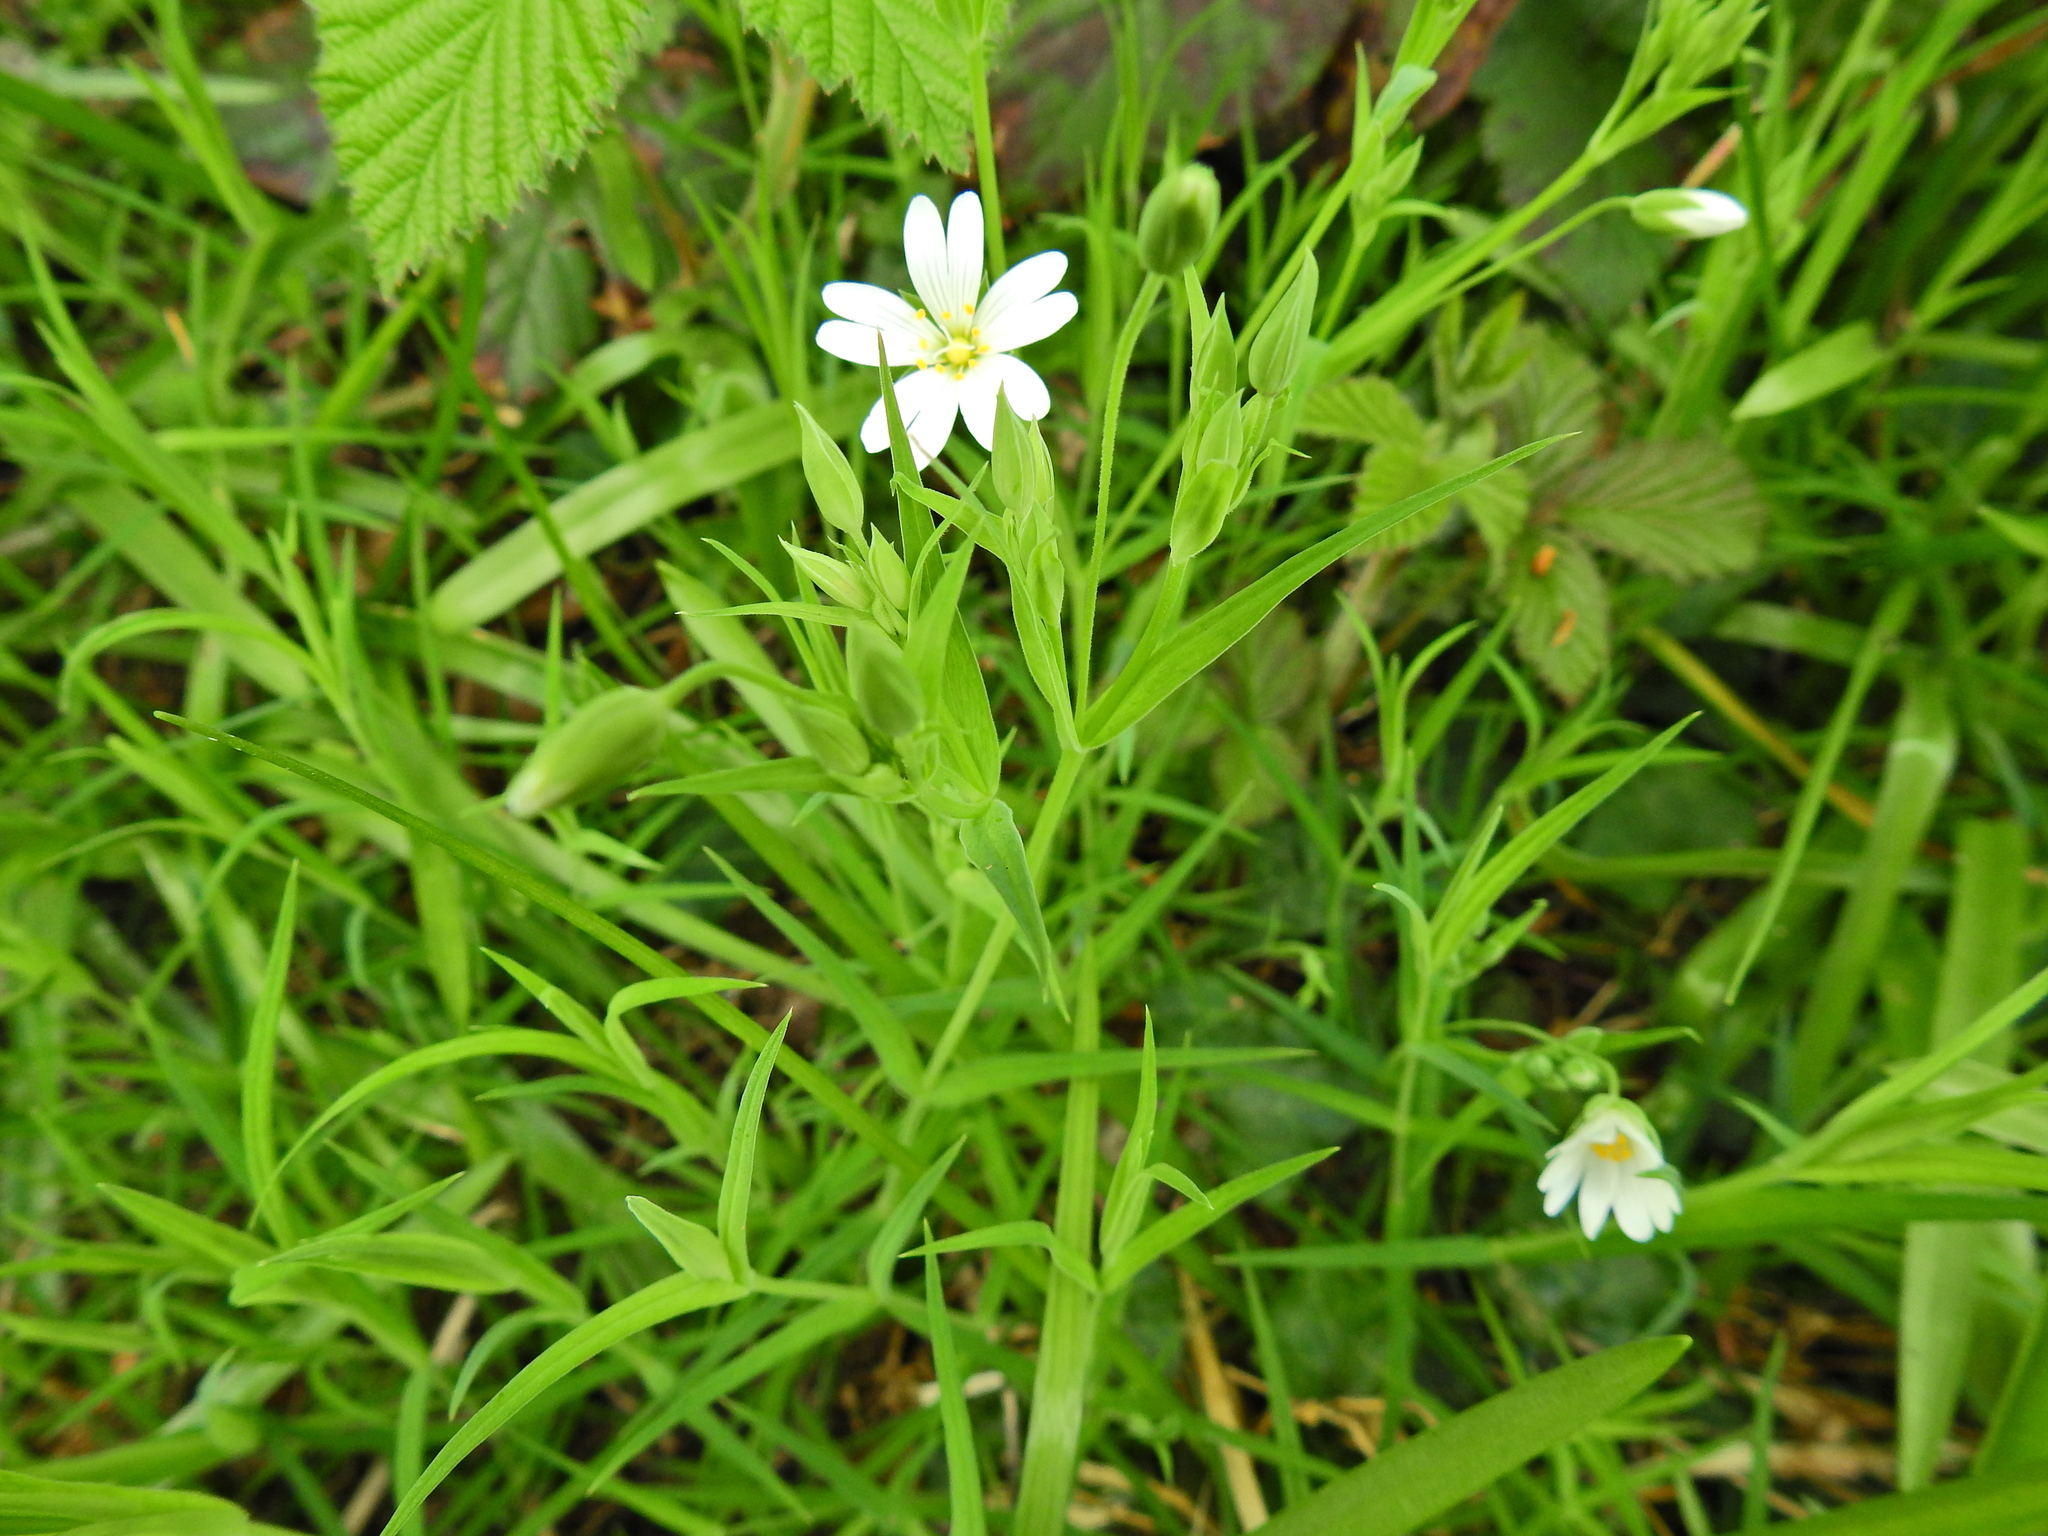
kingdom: Plantae
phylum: Tracheophyta
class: Magnoliopsida
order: Caryophyllales
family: Caryophyllaceae
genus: Rabelera
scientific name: Rabelera holostea
